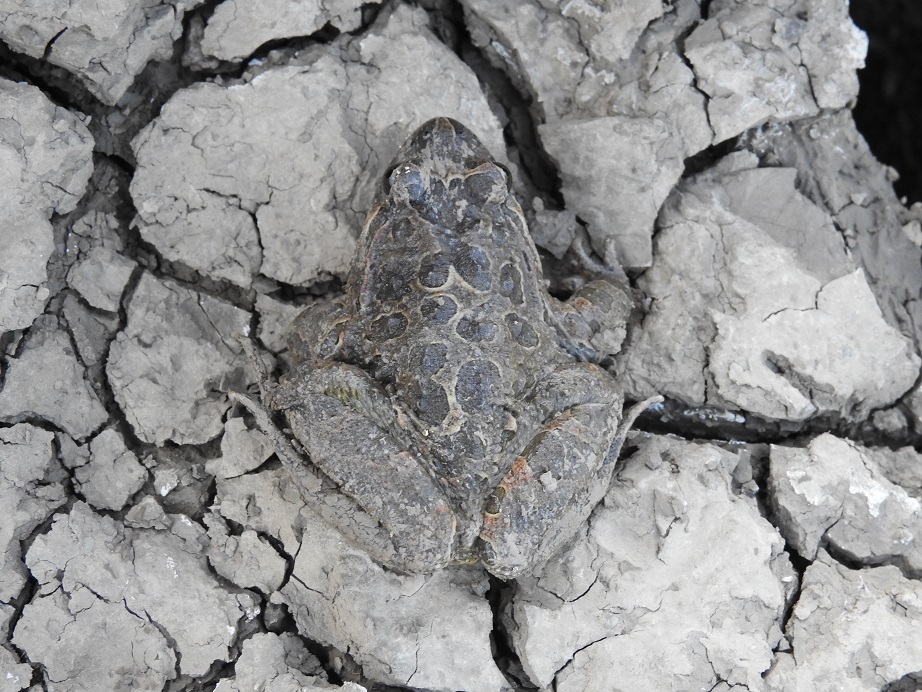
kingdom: Animalia
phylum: Chordata
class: Amphibia
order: Anura
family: Alytidae
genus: Discoglossus
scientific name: Discoglossus pictus
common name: Painted frog
